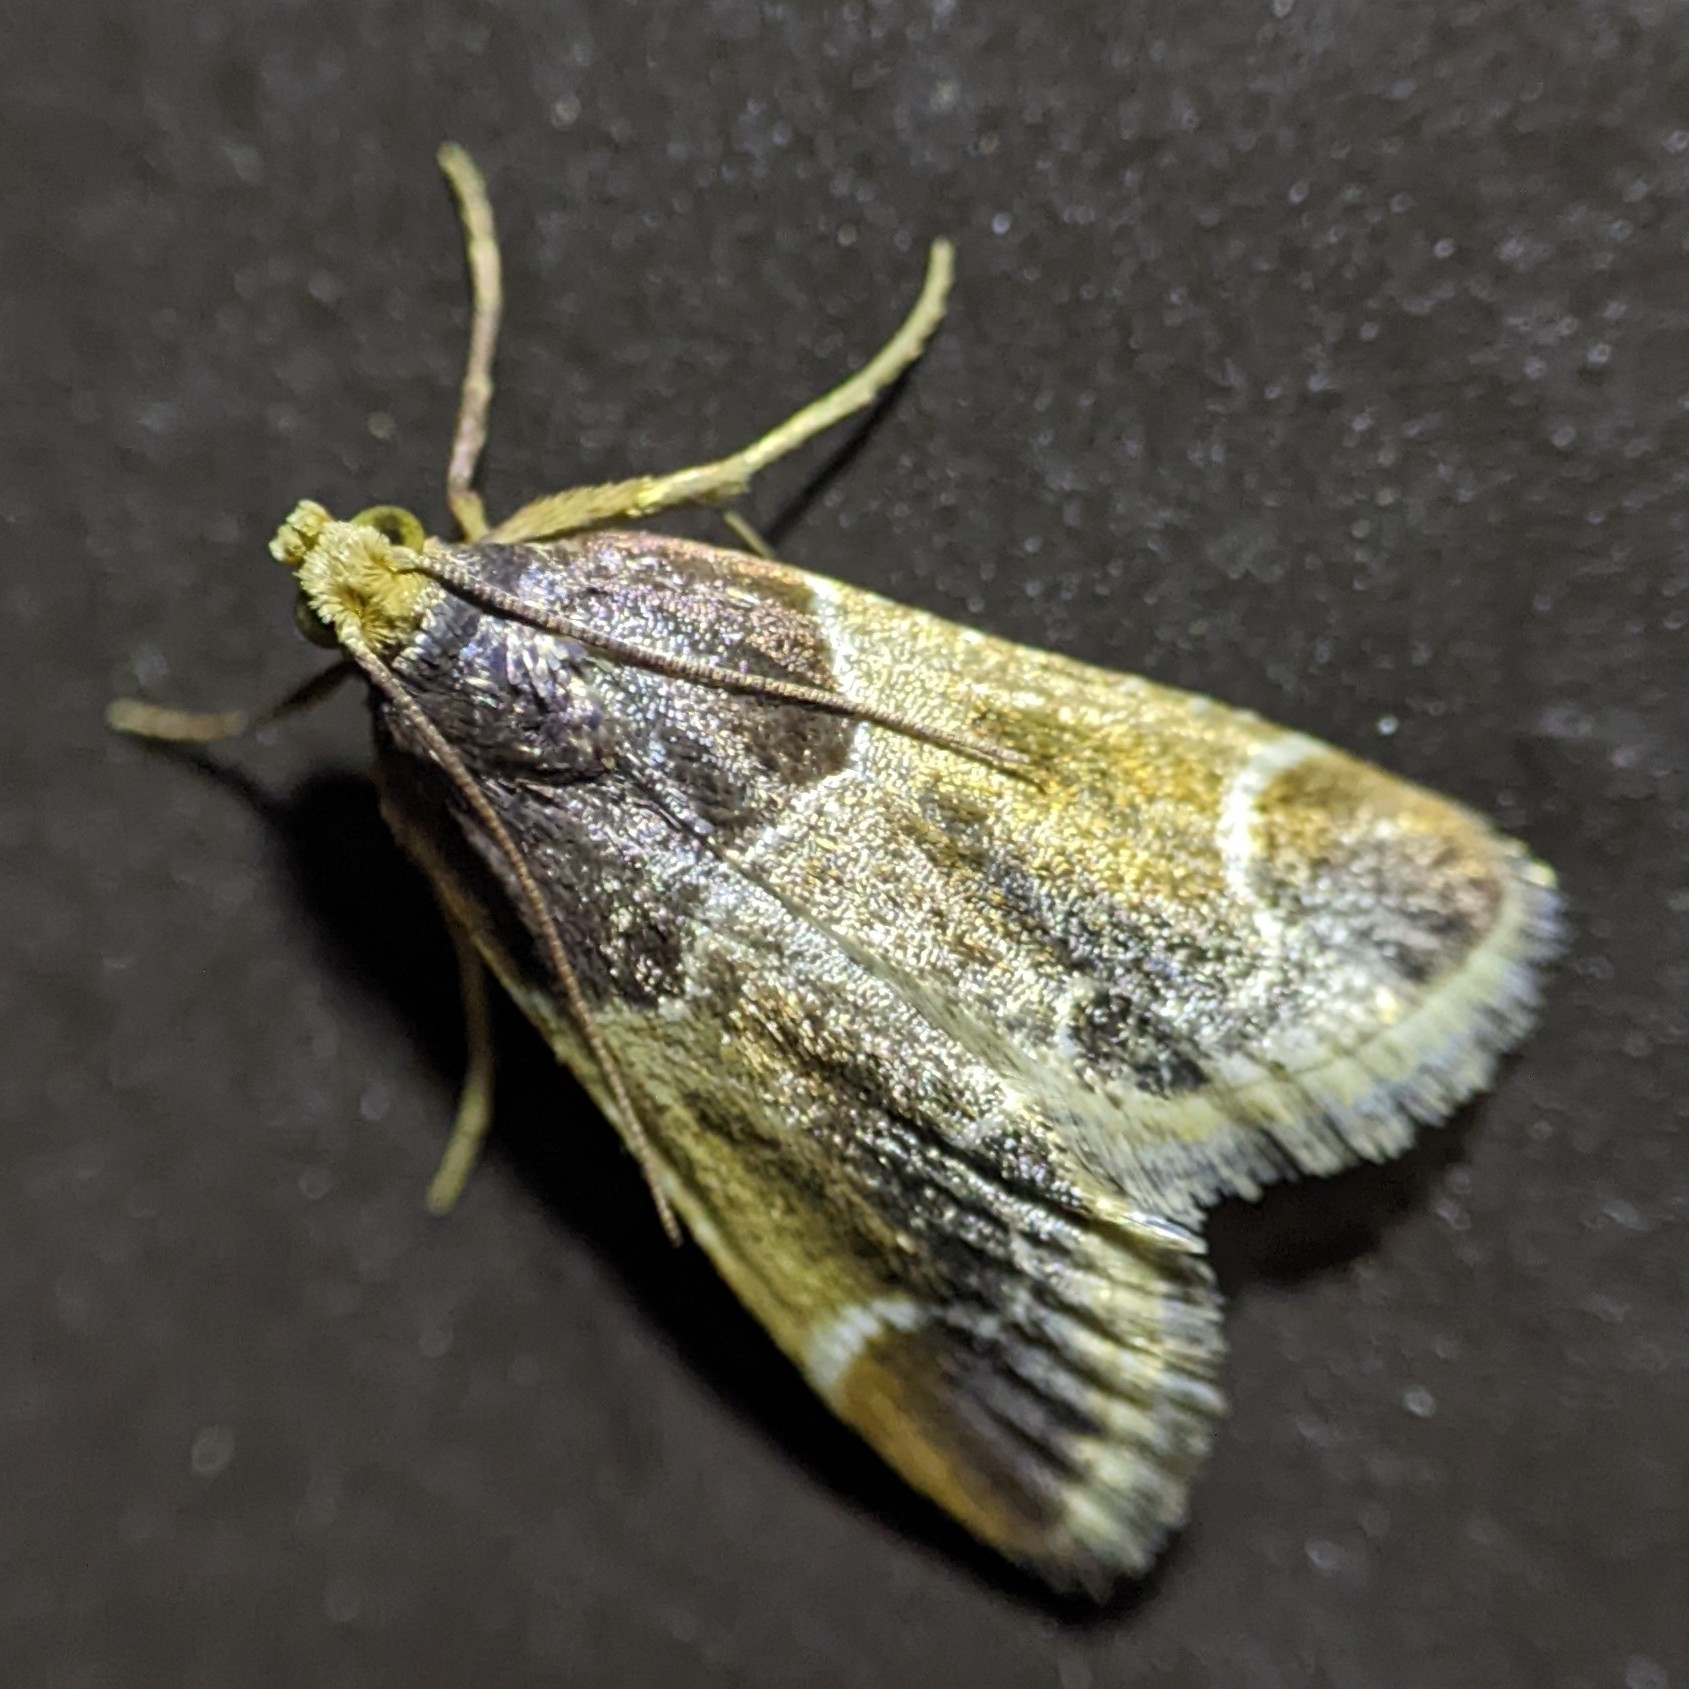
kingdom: Animalia
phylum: Arthropoda
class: Insecta
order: Lepidoptera
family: Pyralidae
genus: Pyralis
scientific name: Pyralis farinalis
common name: Meal moth
